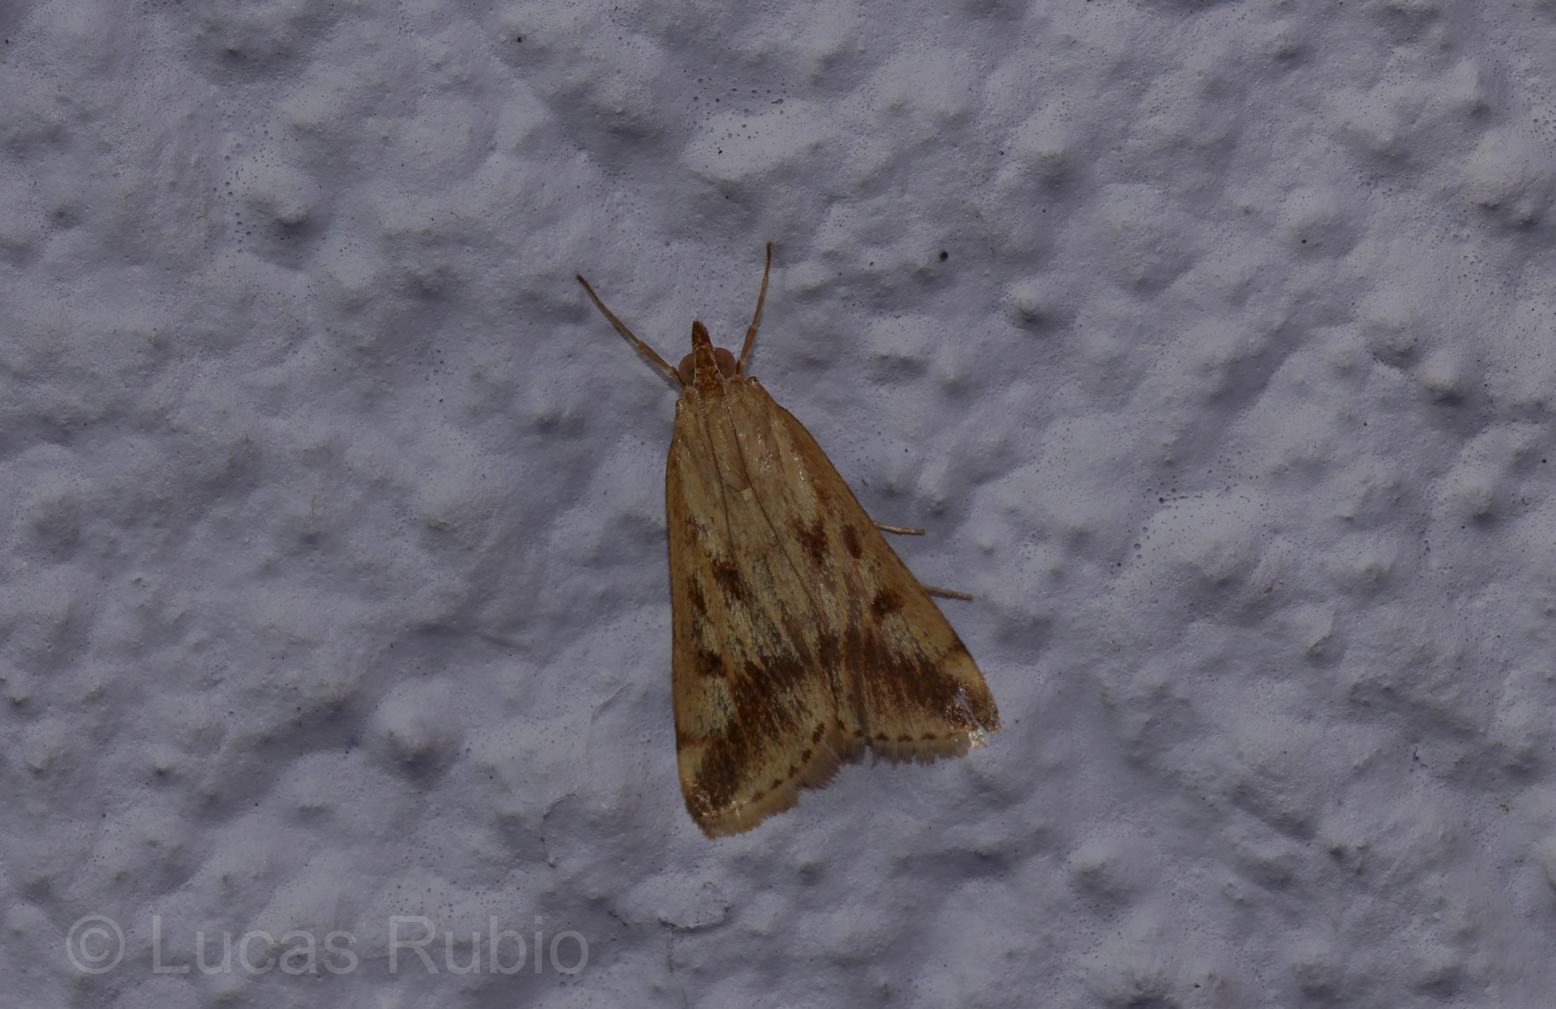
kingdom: Animalia
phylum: Arthropoda
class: Insecta
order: Lepidoptera
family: Crambidae
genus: Achyra
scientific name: Achyra bifidalis
